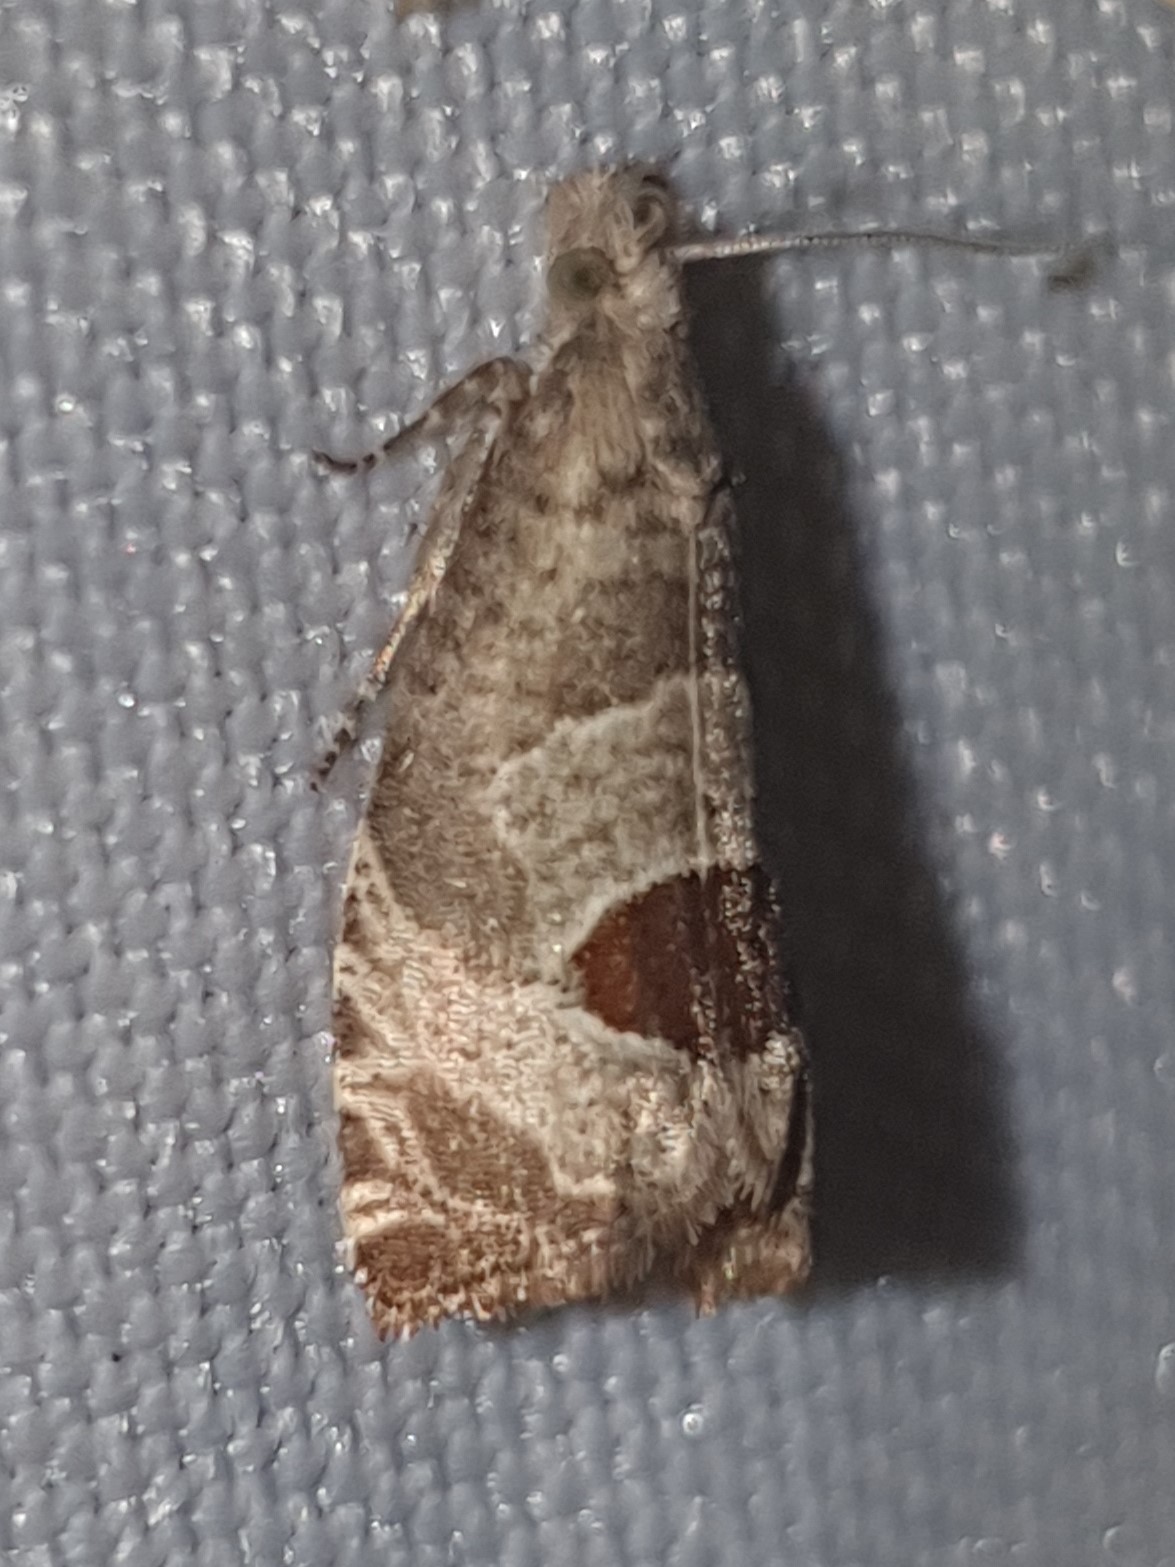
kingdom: Animalia
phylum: Arthropoda
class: Insecta
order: Lepidoptera
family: Tortricidae
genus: Notocelia
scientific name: Notocelia uddmanniana
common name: Bramble shoot moth
